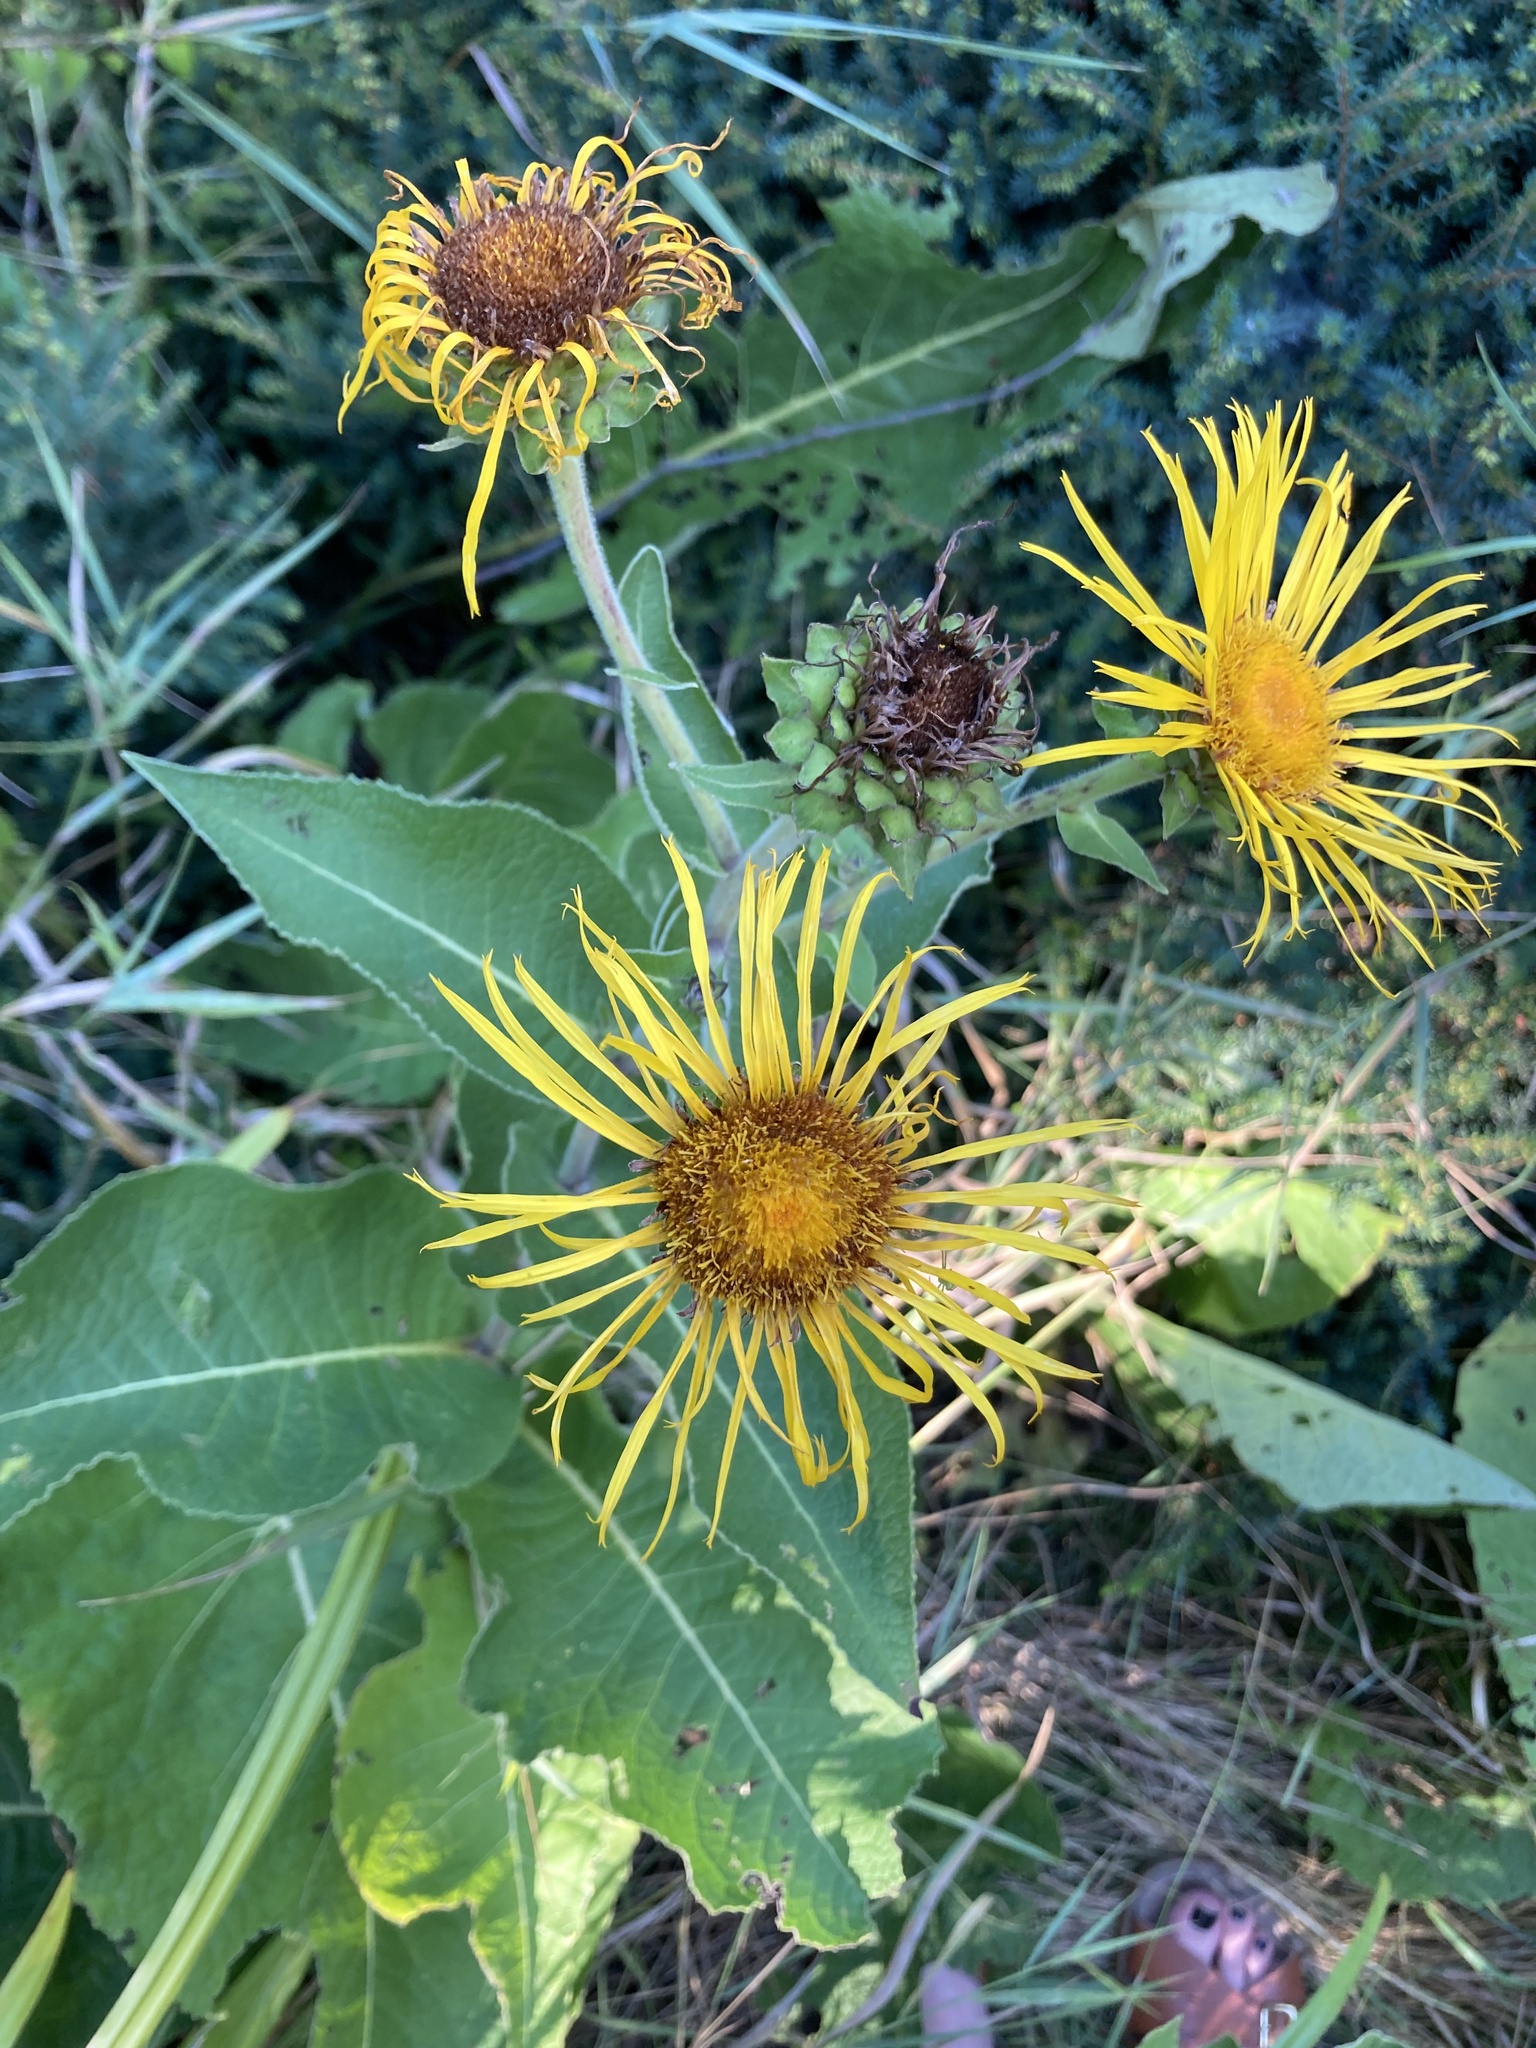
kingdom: Plantae
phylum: Tracheophyta
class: Magnoliopsida
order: Asterales
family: Asteraceae
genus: Inula
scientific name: Inula helenium
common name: Elecampane
